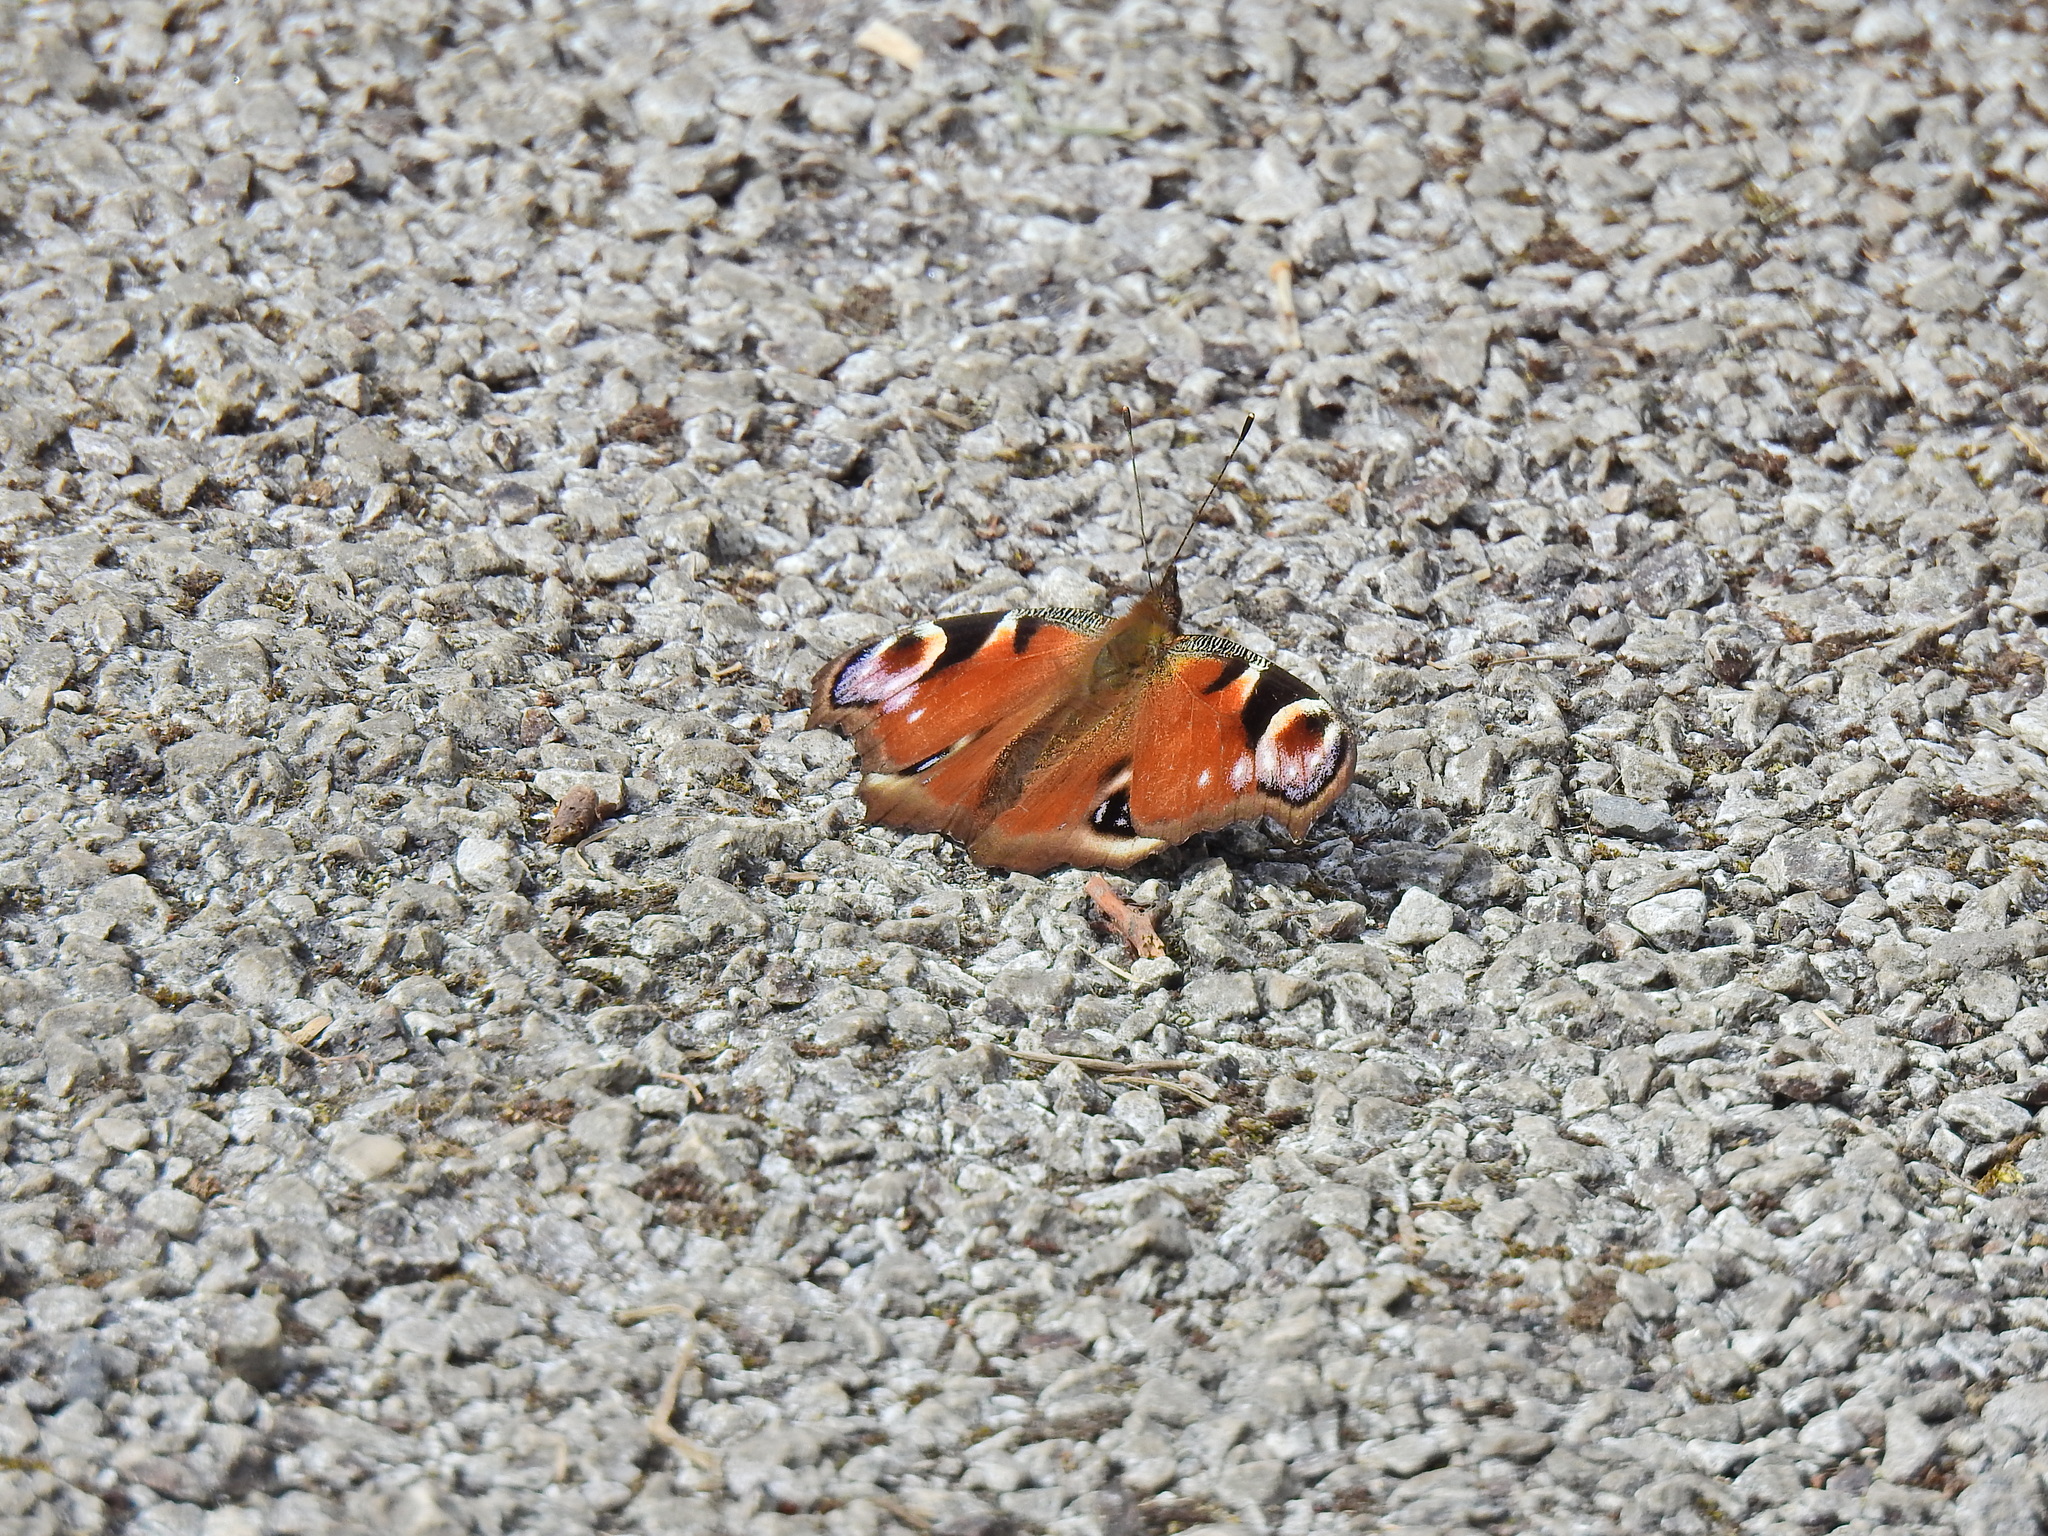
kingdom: Animalia
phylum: Arthropoda
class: Insecta
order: Lepidoptera
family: Nymphalidae
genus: Aglais
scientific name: Aglais io
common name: Peacock
